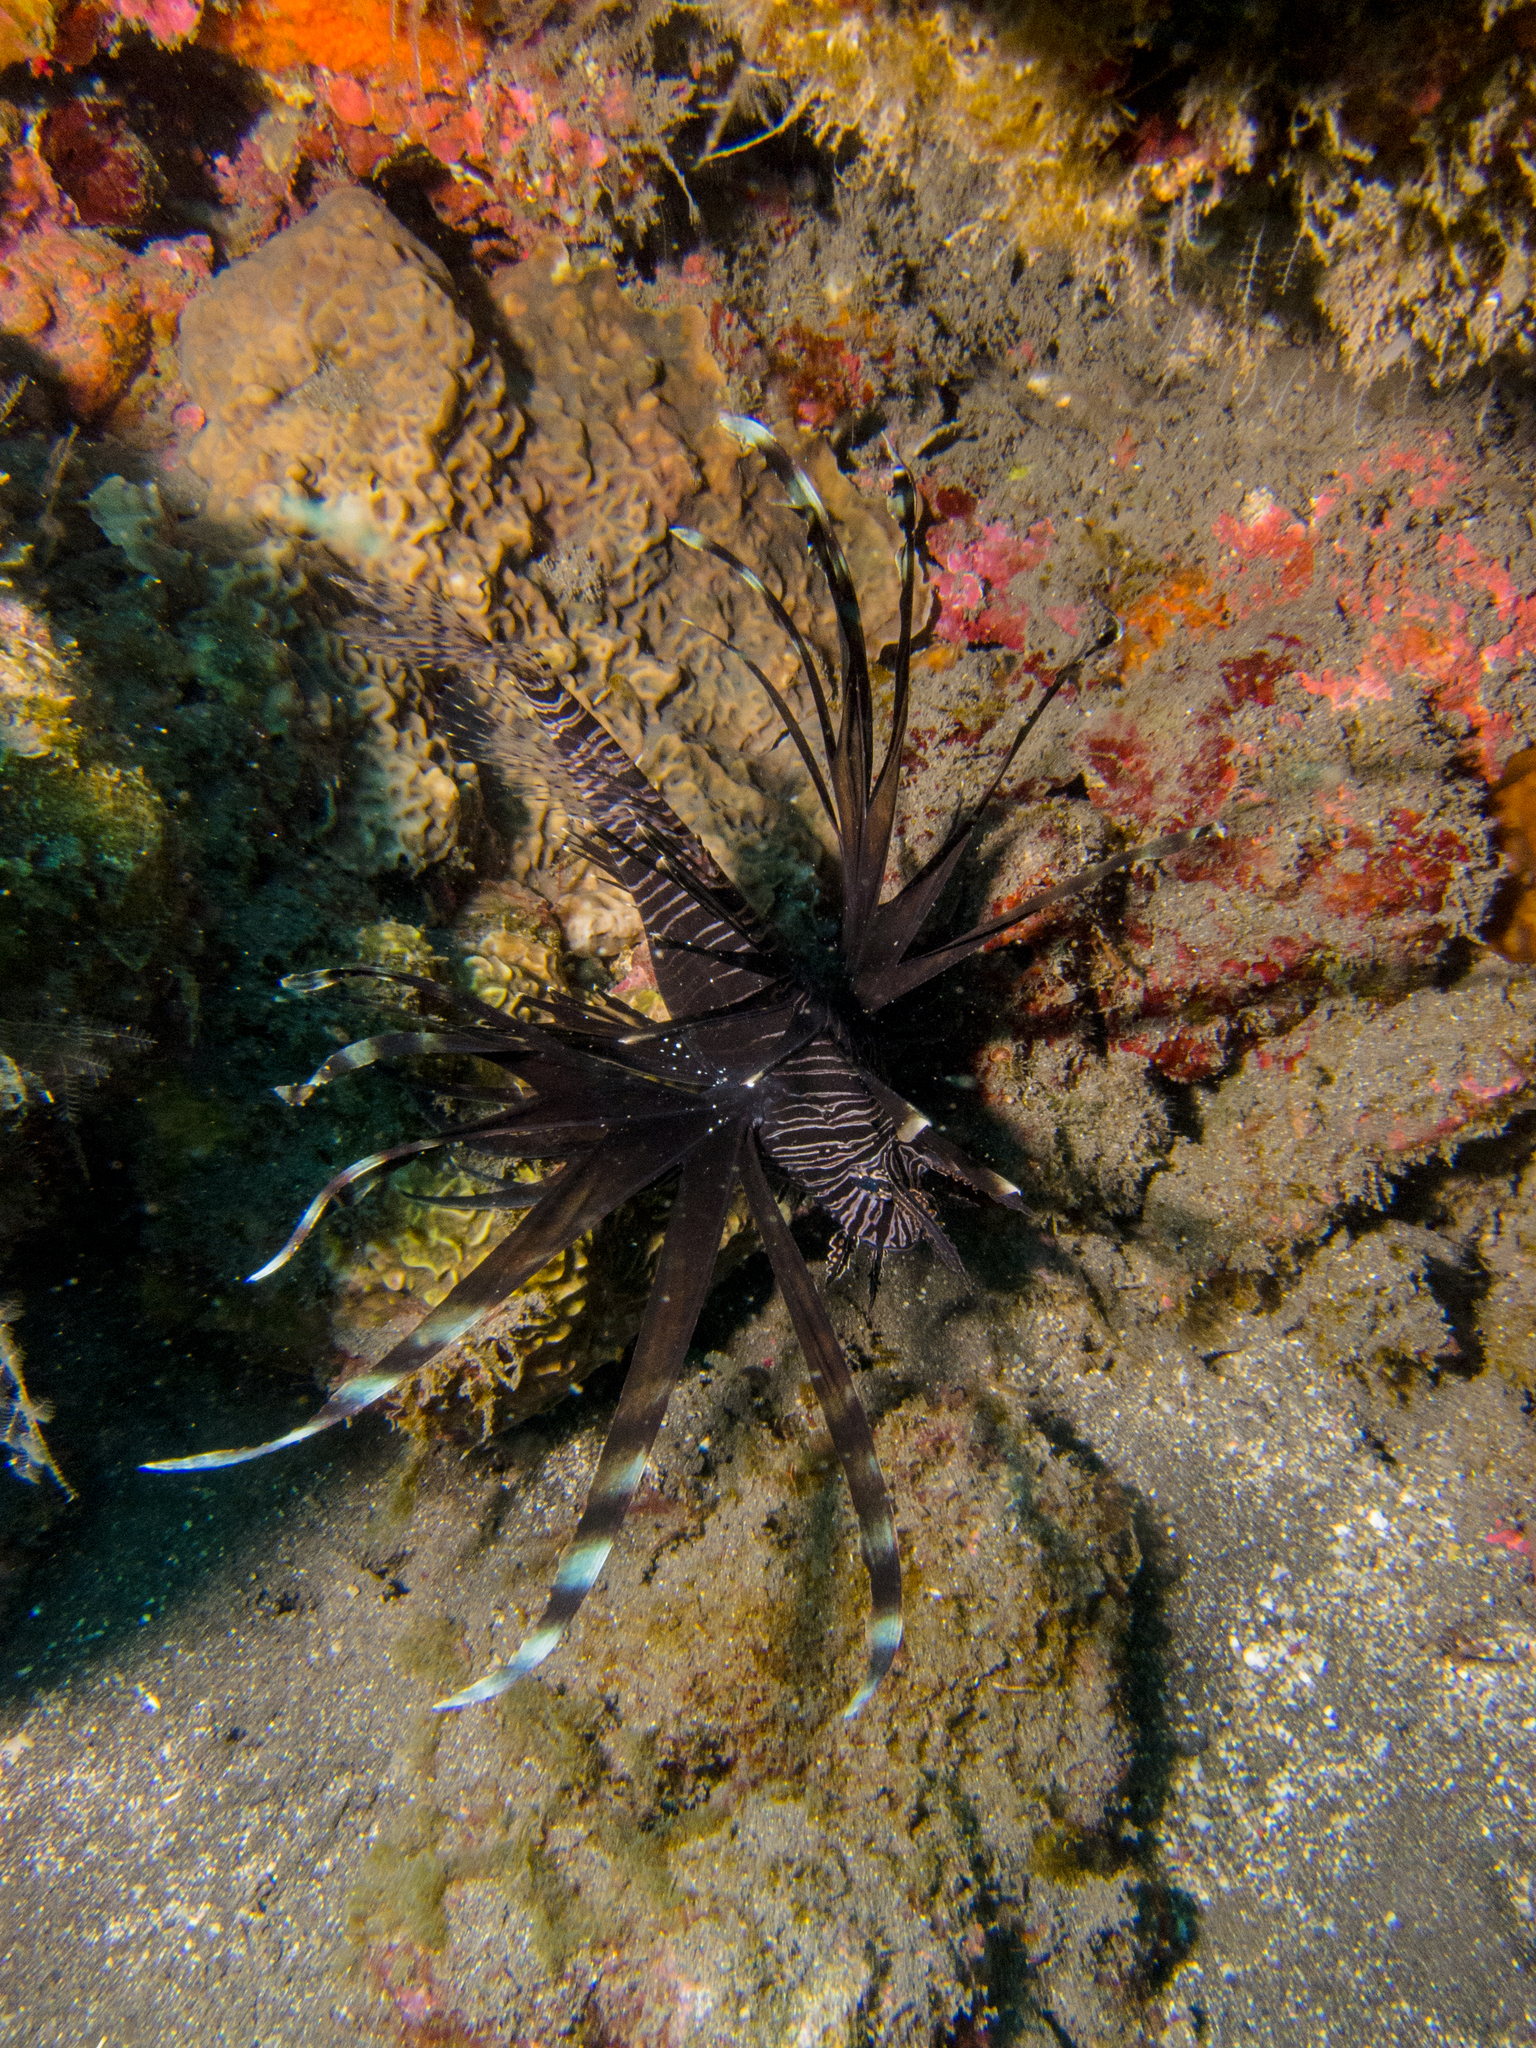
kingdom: Animalia
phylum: Chordata
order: Scorpaeniformes
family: Scorpaenidae
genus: Pterois
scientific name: Pterois miles
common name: Devil firefish
